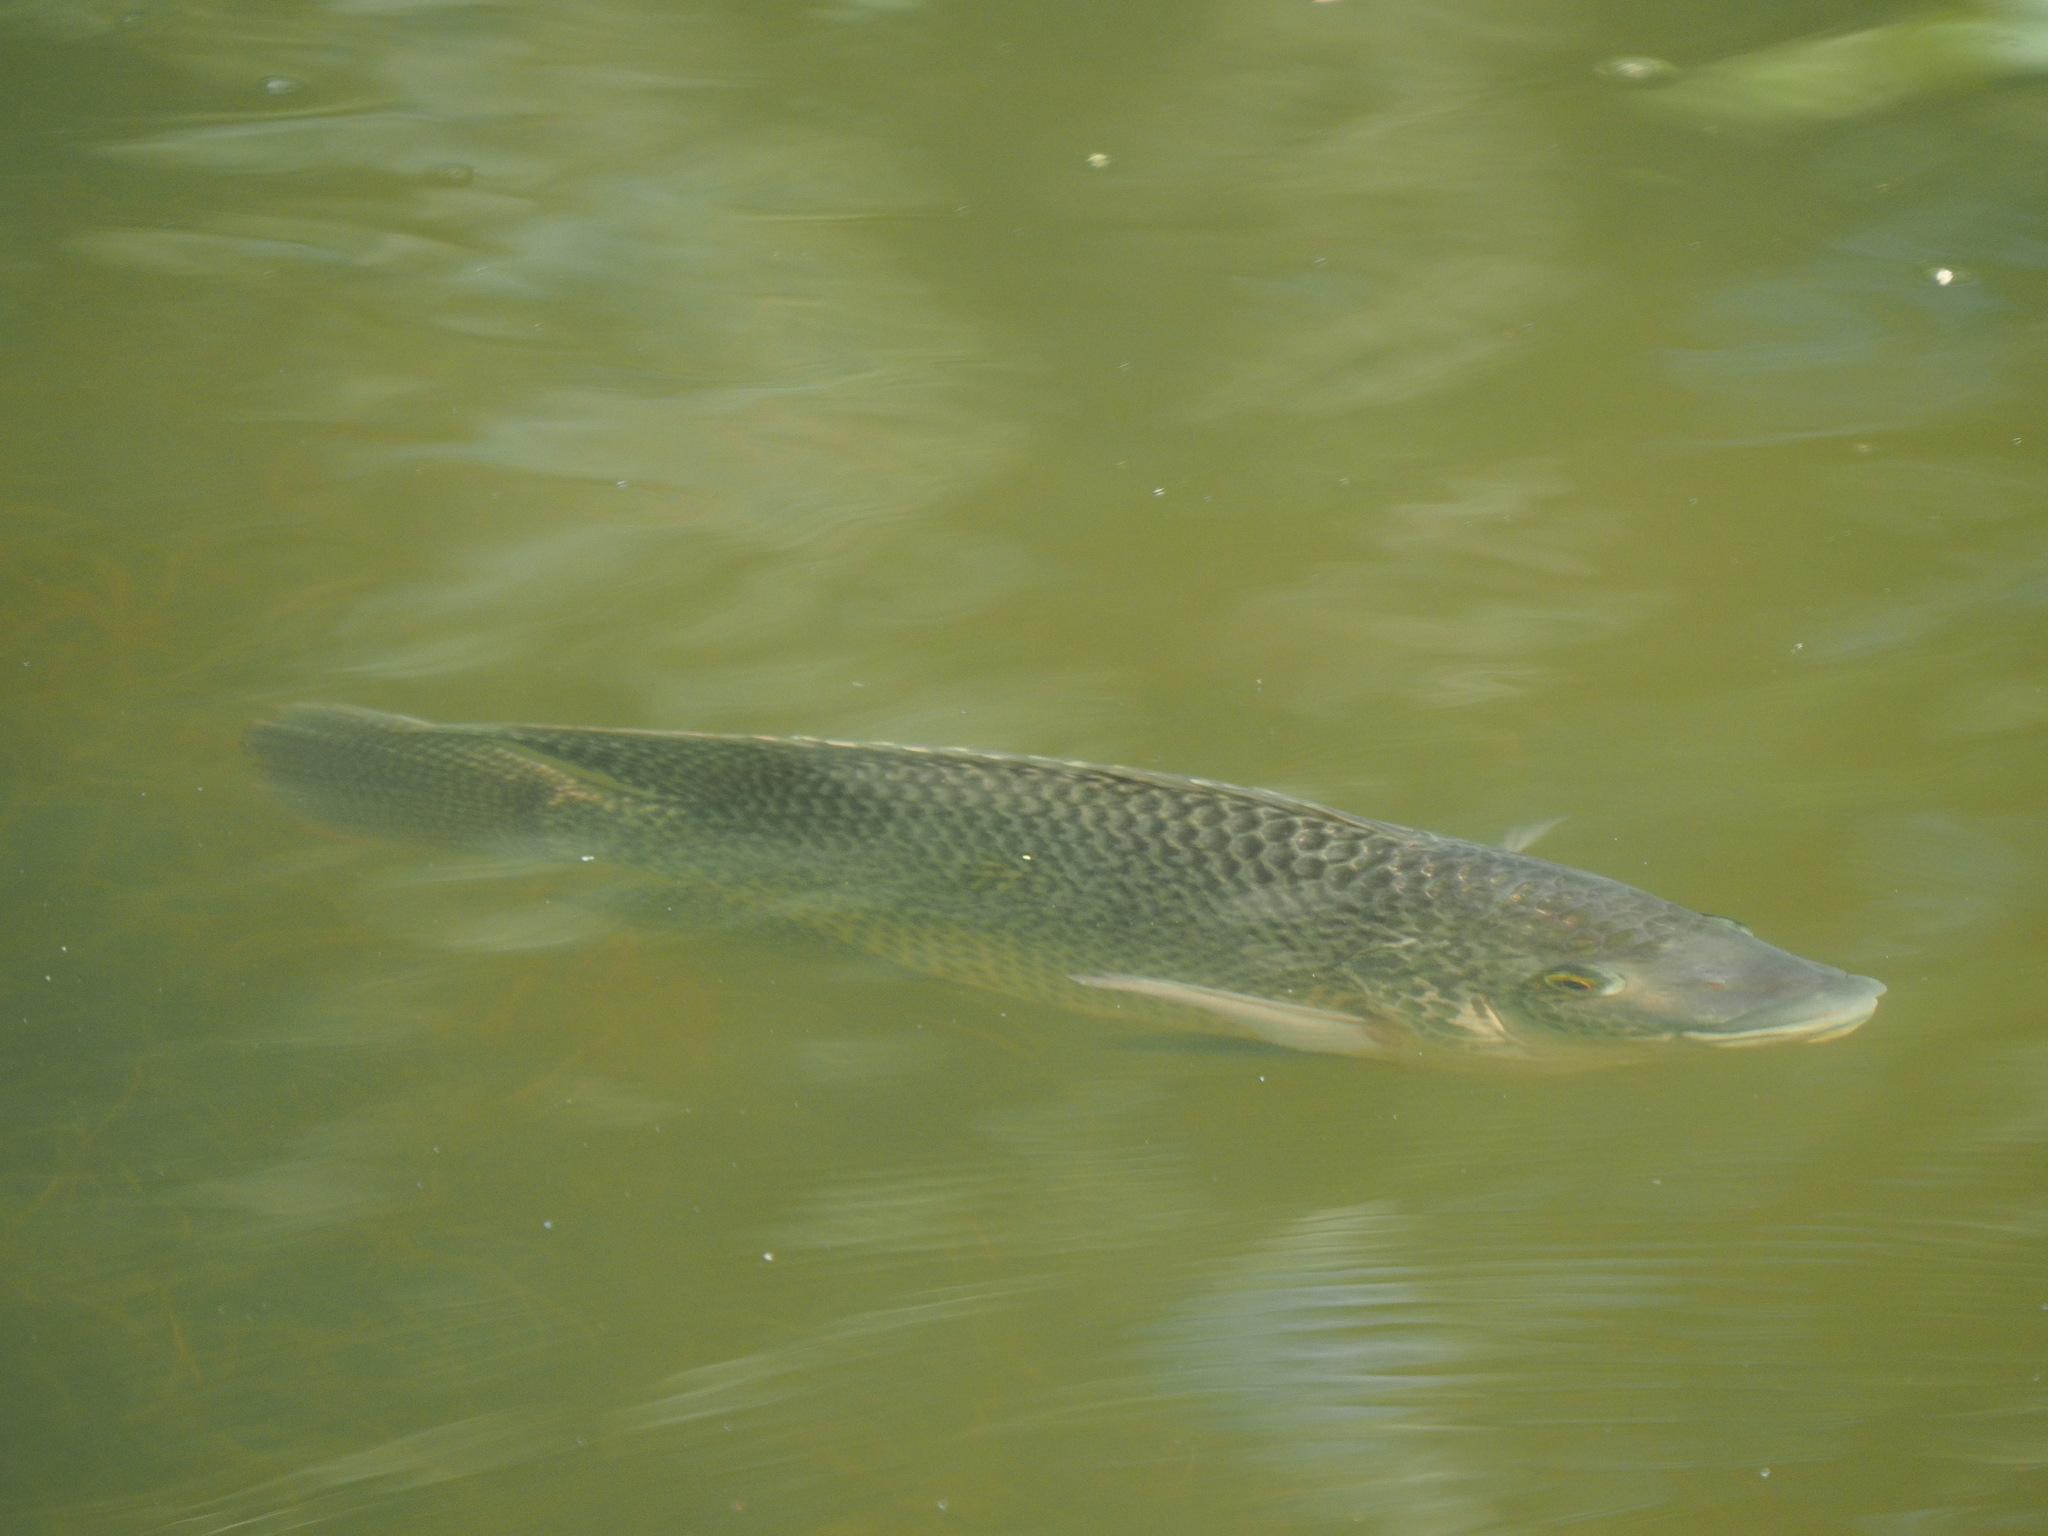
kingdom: Animalia
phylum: Chordata
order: Perciformes
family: Cichlidae
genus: Oreochromis
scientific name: Oreochromis mossambicus
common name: Mozambique tilapia
